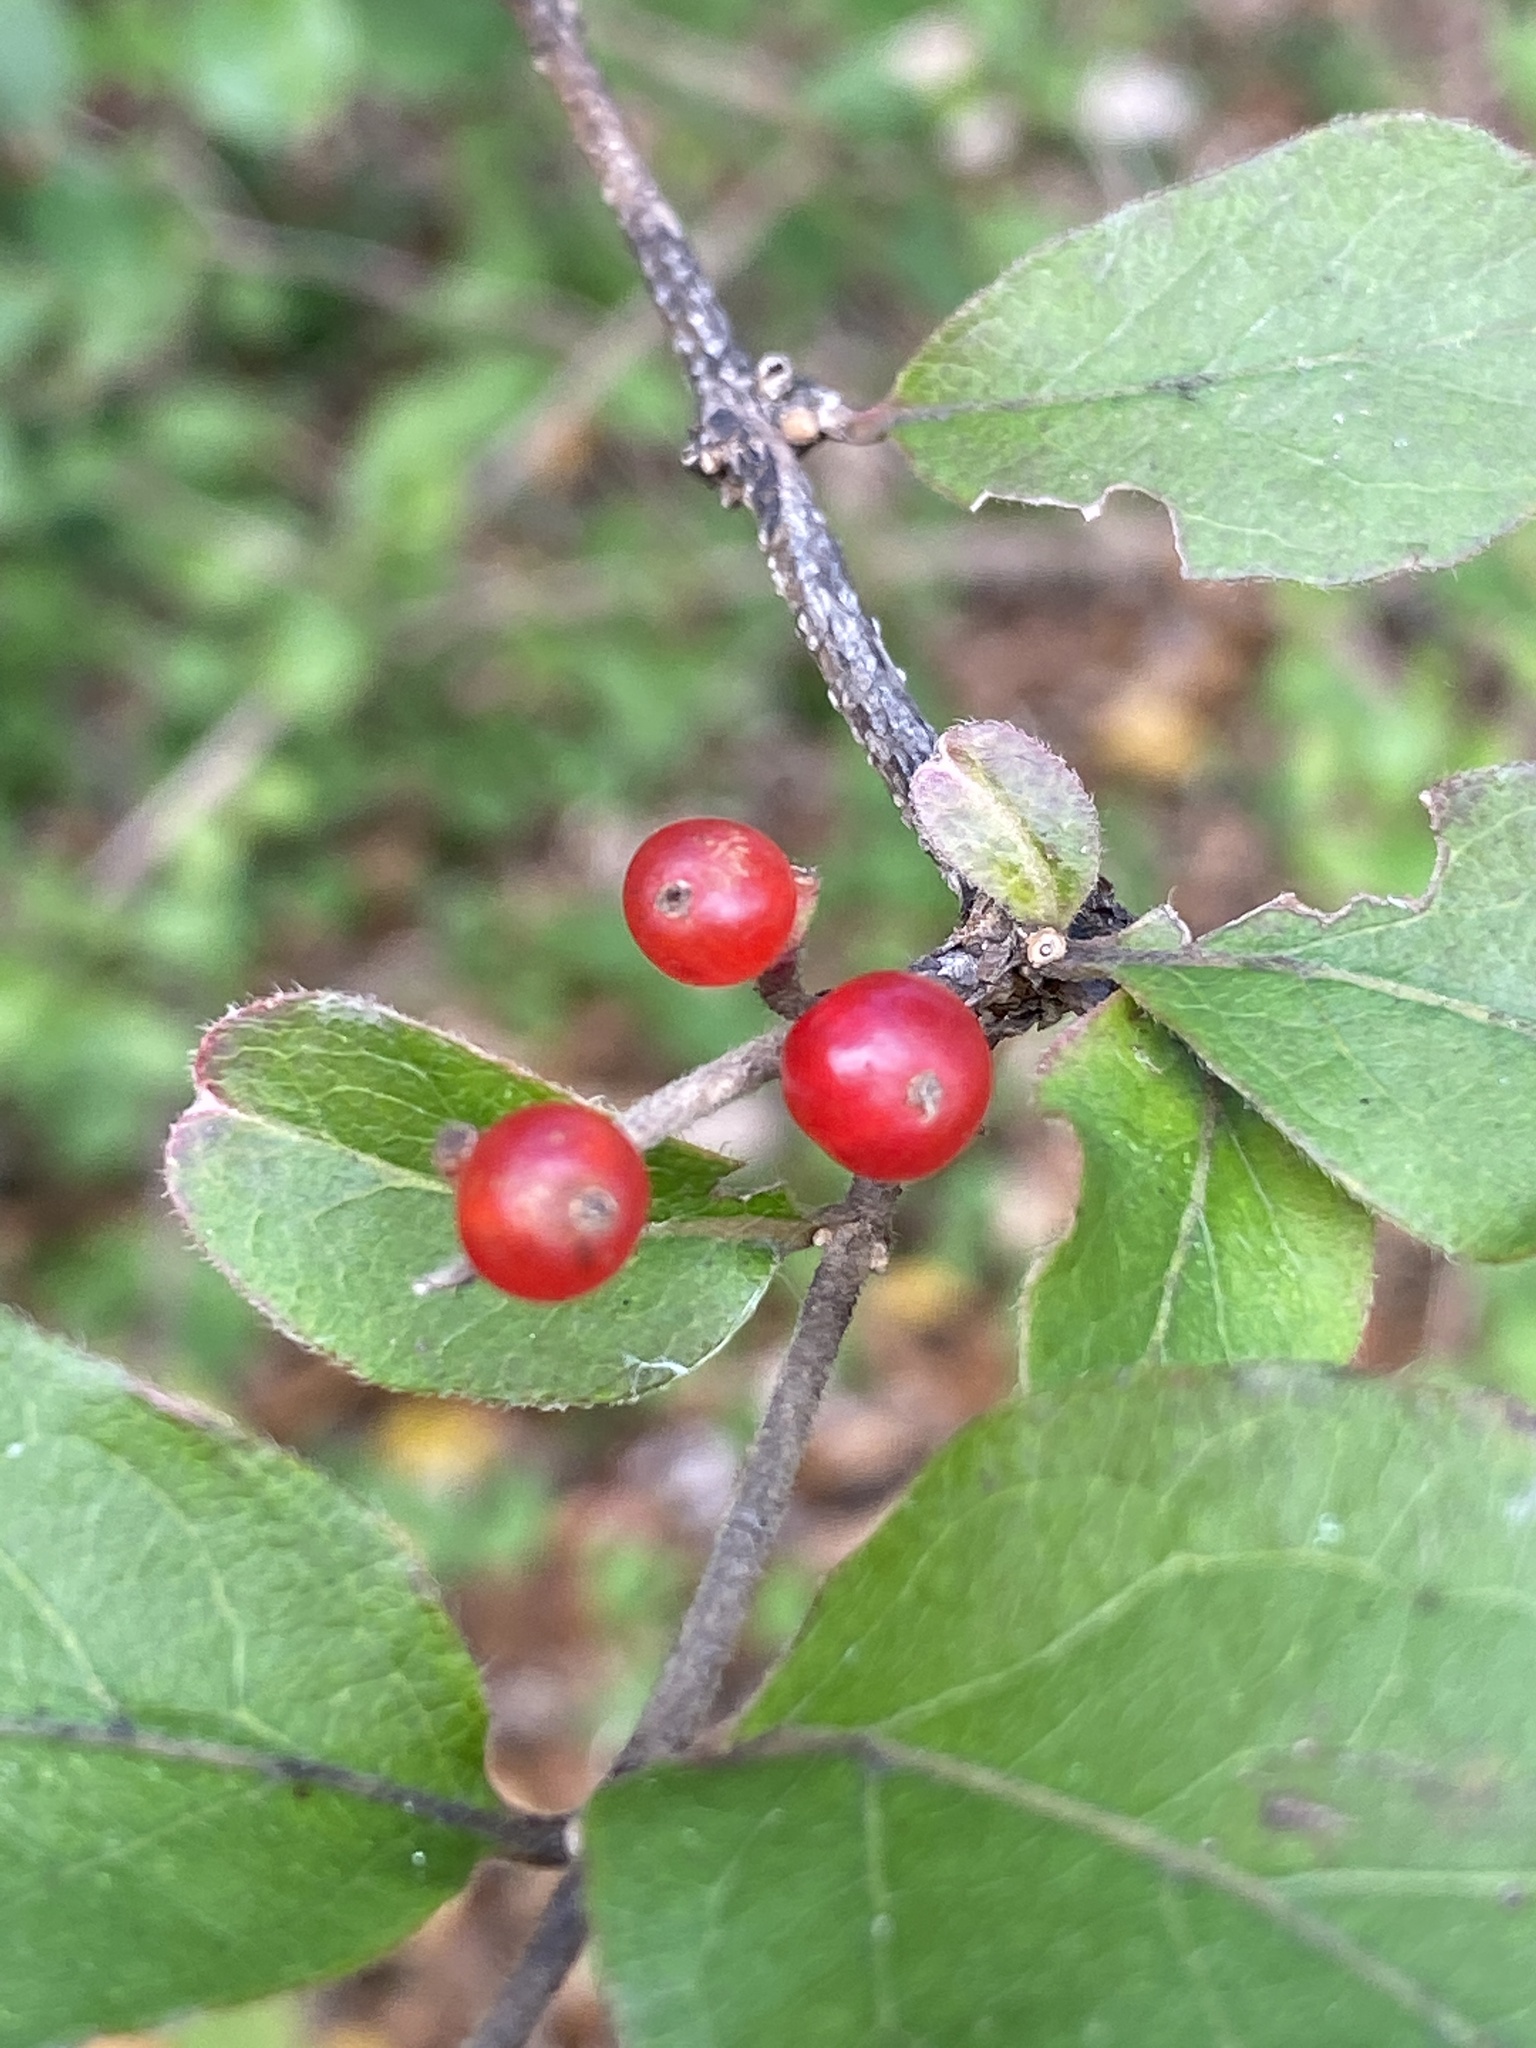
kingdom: Plantae
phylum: Tracheophyta
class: Magnoliopsida
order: Dipsacales
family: Caprifoliaceae
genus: Lonicera
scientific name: Lonicera maackii
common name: Amur honeysuckle
